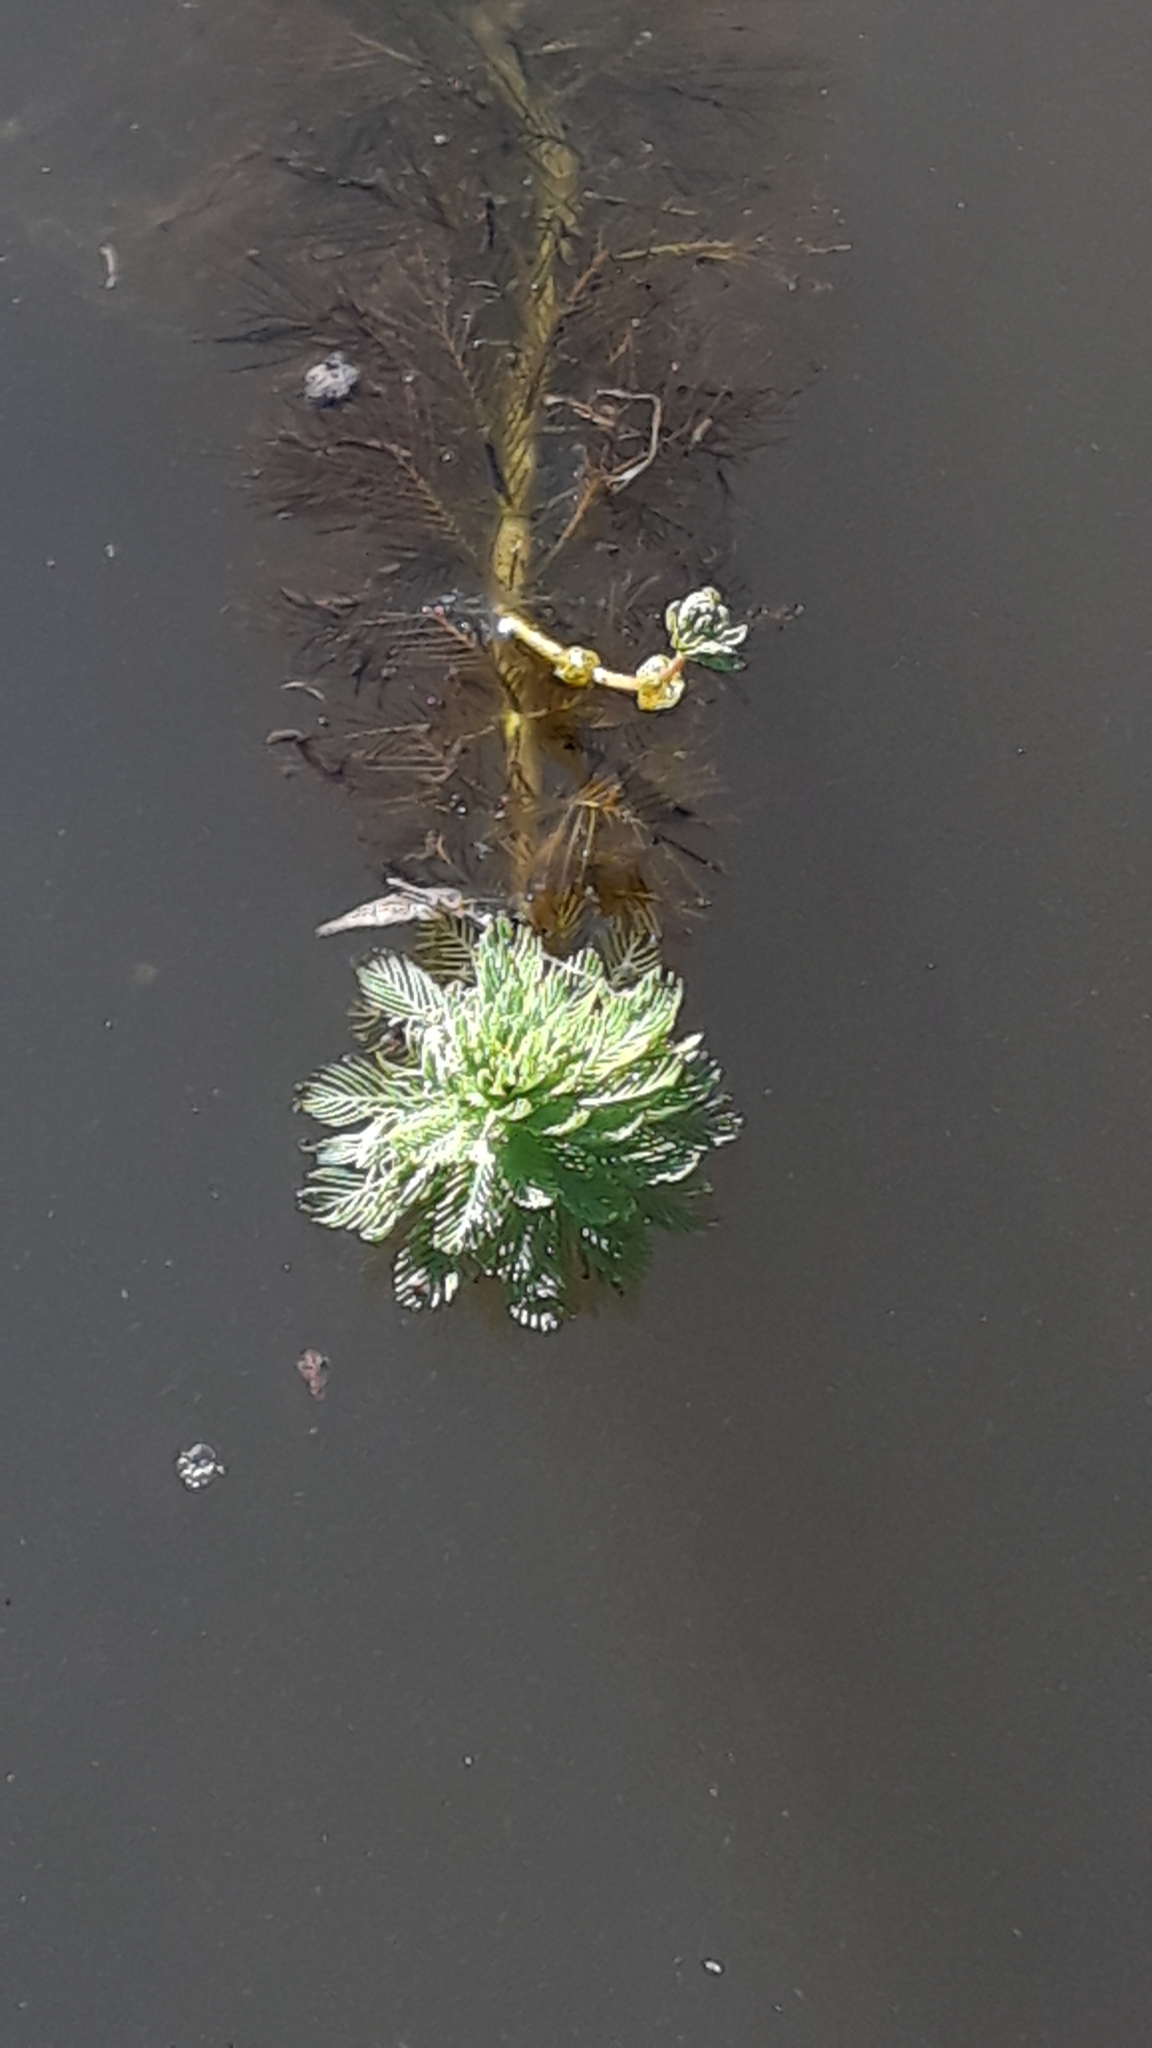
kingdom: Plantae
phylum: Tracheophyta
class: Magnoliopsida
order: Saxifragales
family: Haloragaceae
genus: Myriophyllum
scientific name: Myriophyllum aquaticum
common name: Parrot's feather
